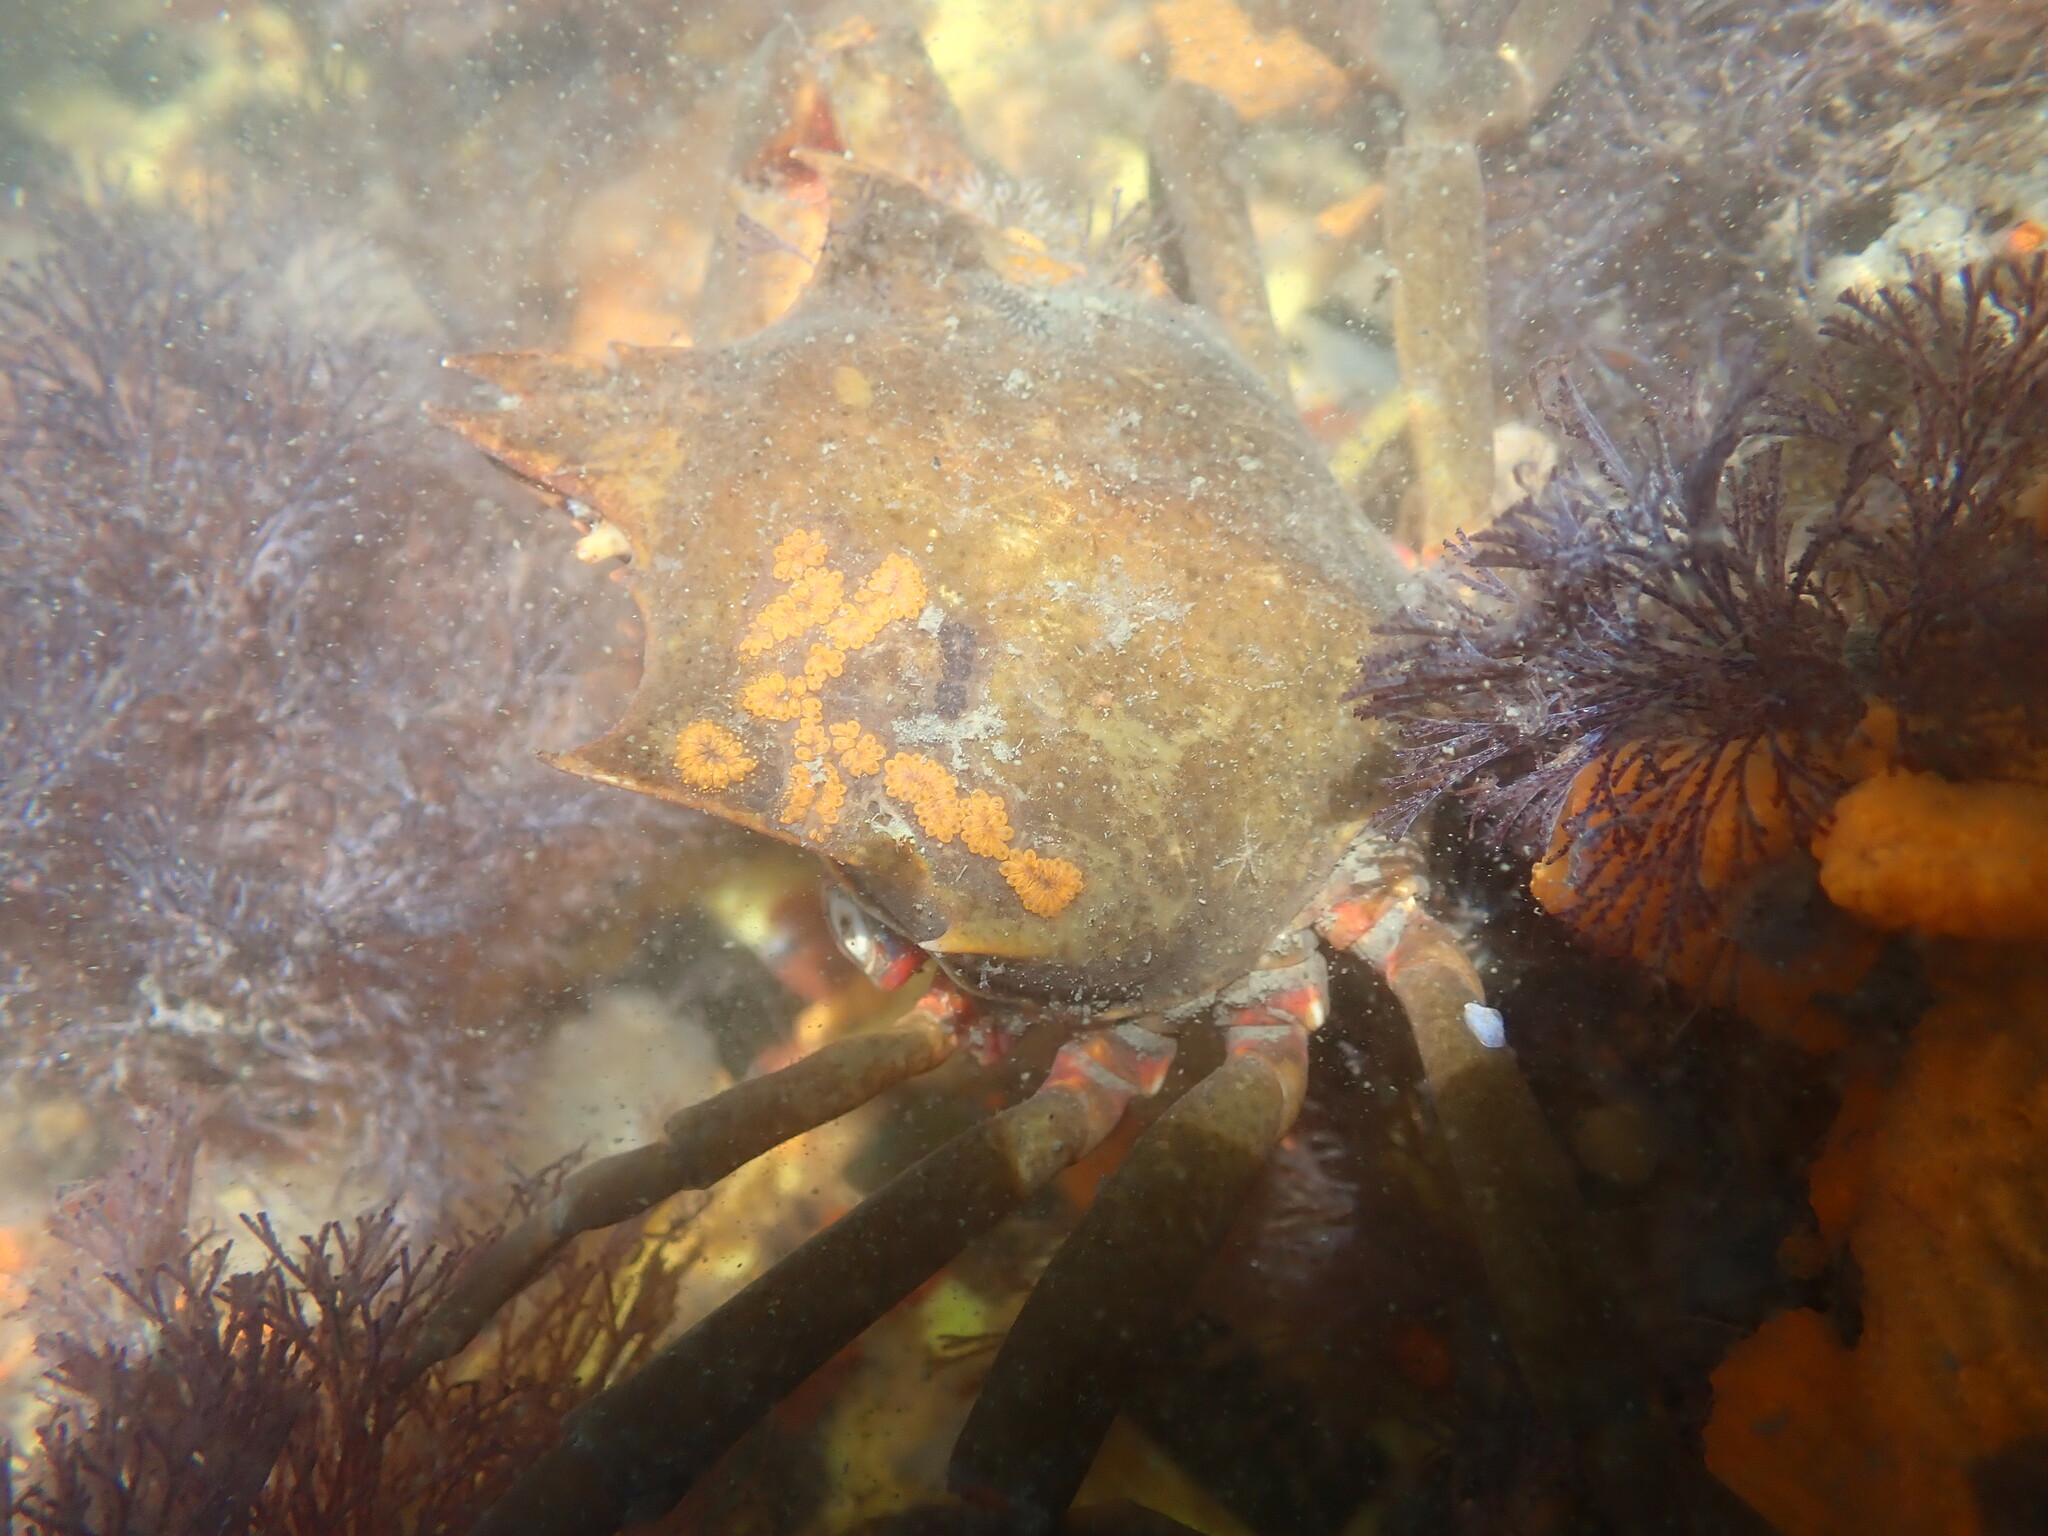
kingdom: Animalia
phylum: Arthropoda
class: Malacostraca
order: Decapoda
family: Epialtidae
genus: Pugettia
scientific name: Pugettia producta
